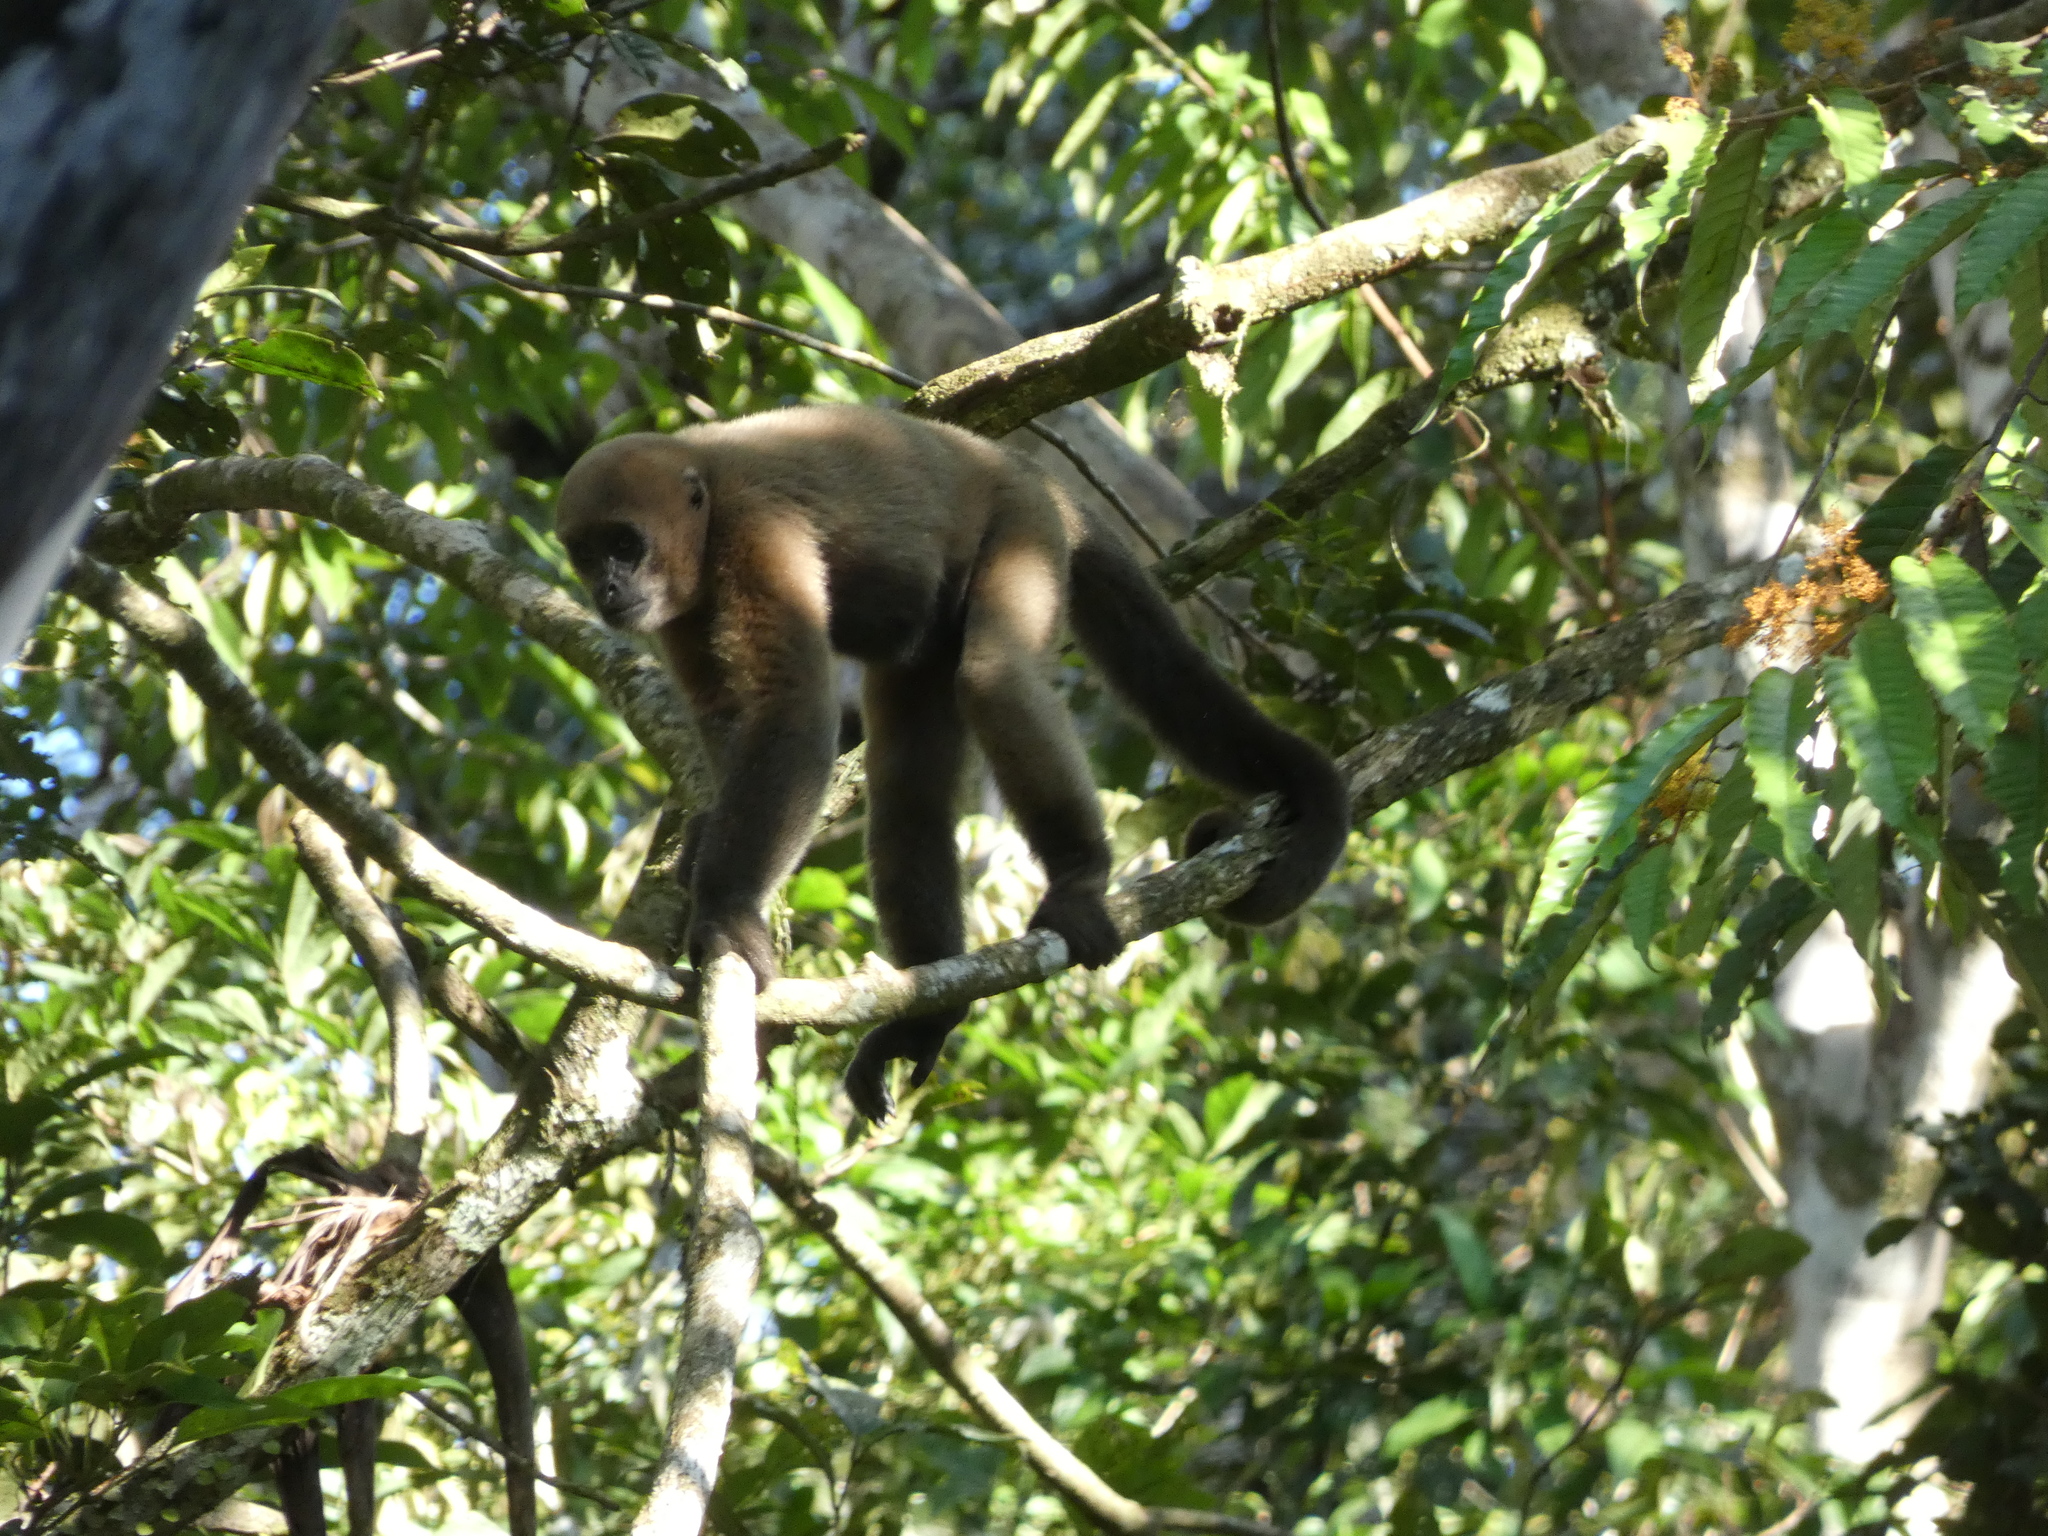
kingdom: Animalia
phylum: Chordata
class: Mammalia
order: Primates
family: Atelidae
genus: Lagothrix
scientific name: Lagothrix lagothricha
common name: Brown woolly monkey
